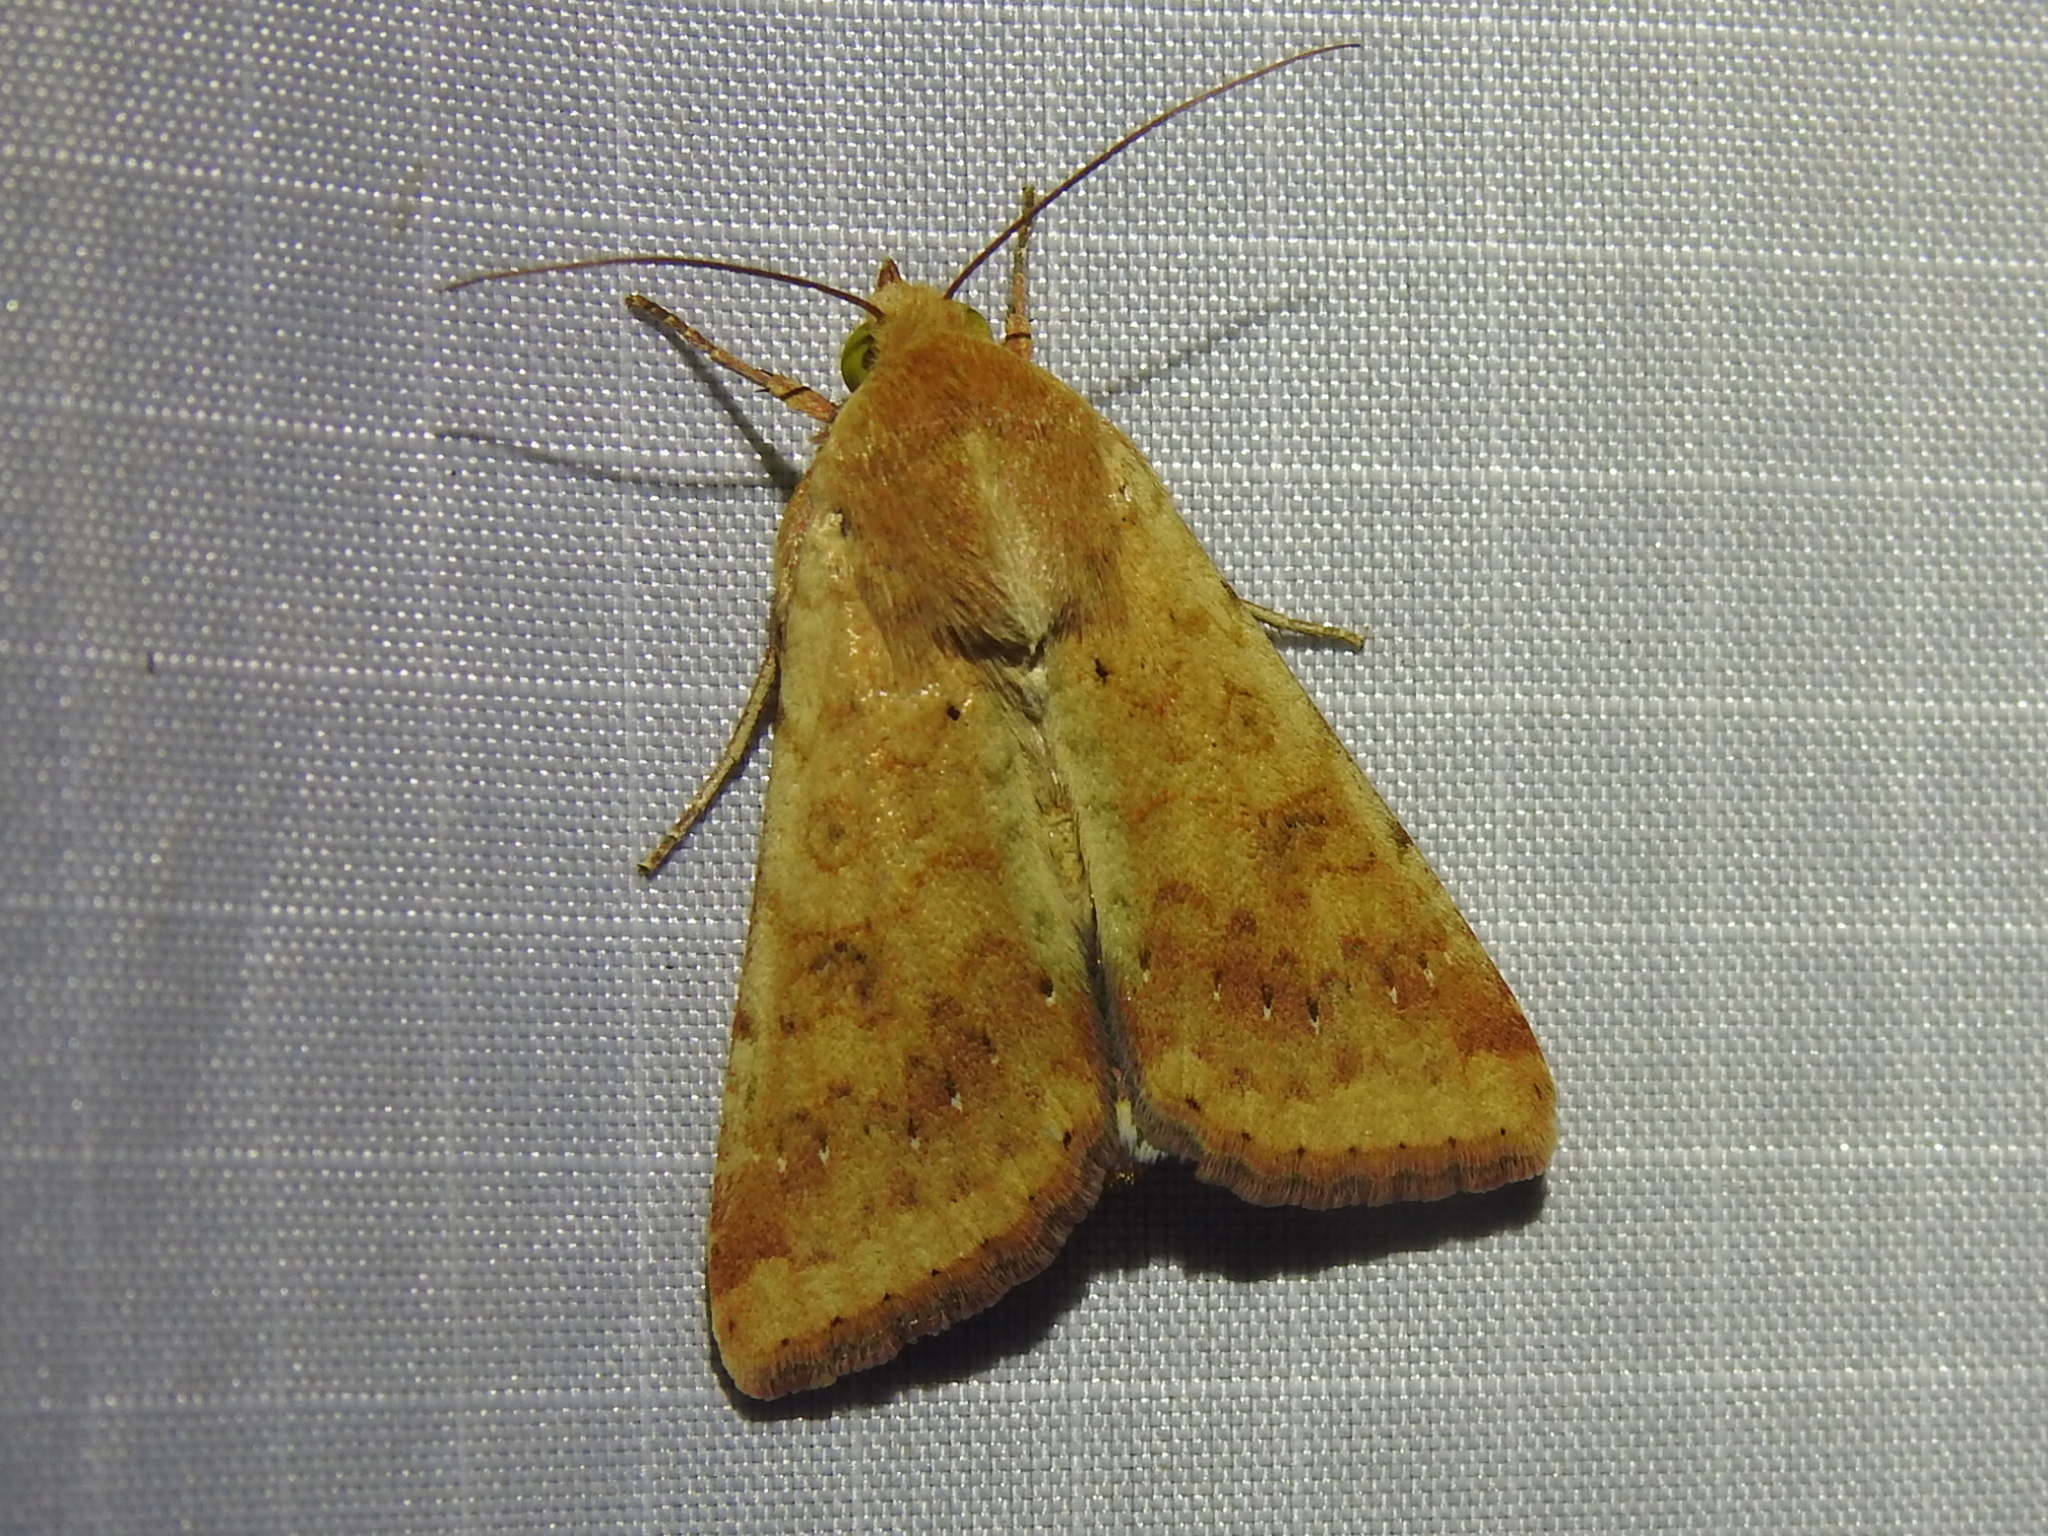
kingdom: Animalia
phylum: Arthropoda
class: Insecta
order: Lepidoptera
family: Noctuidae
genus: Helicoverpa
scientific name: Helicoverpa zea
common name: Bollworm
